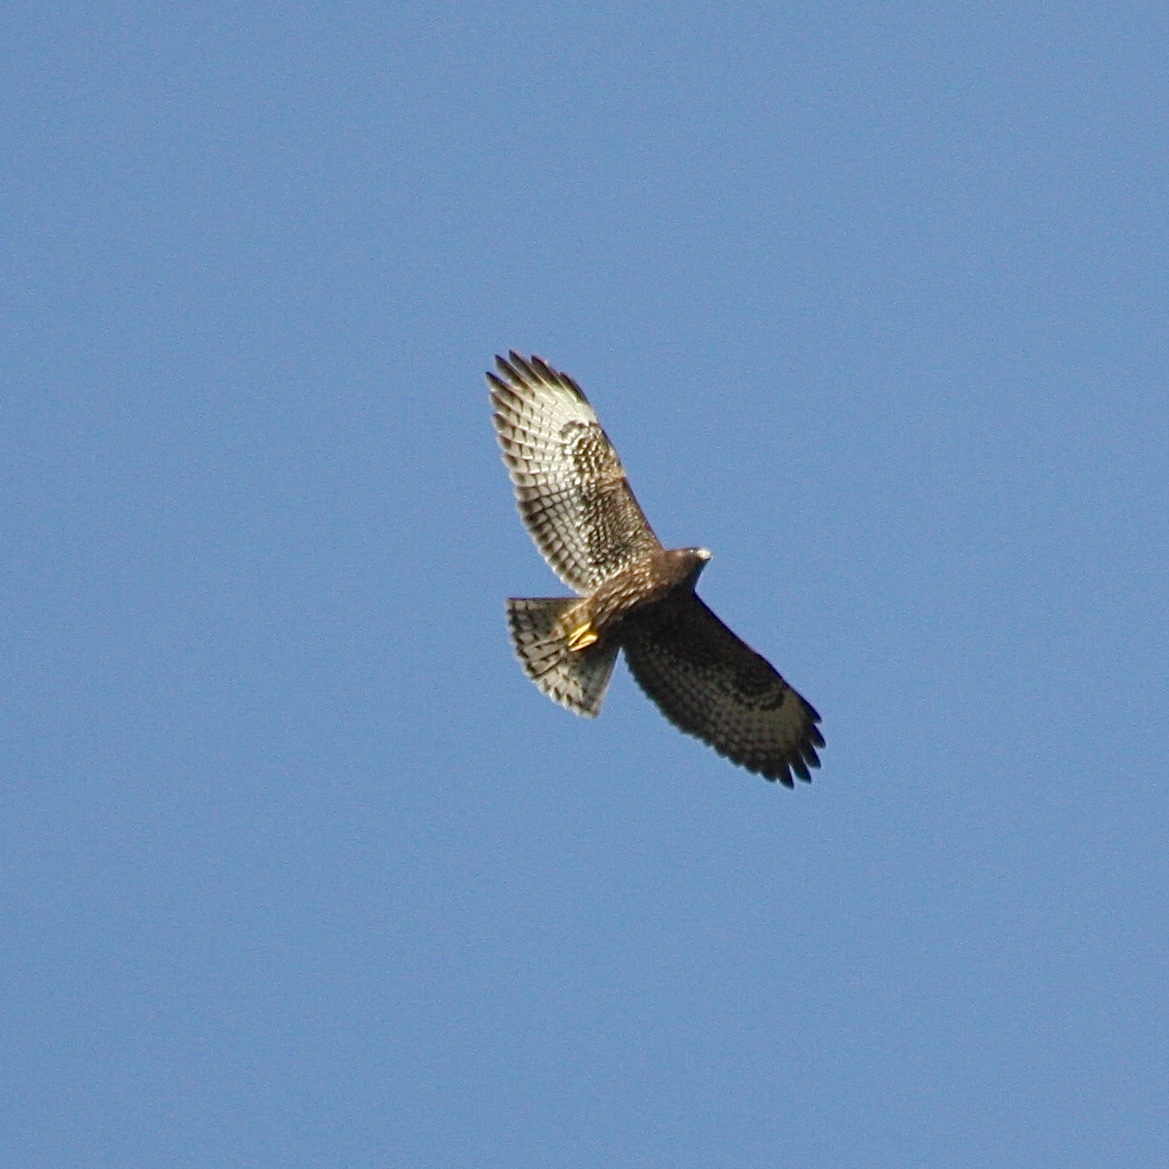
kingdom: Animalia
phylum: Chordata
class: Aves
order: Accipitriformes
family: Accipitridae
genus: Buteo
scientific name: Buteo brachyurus
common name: Short-tailed hawk
